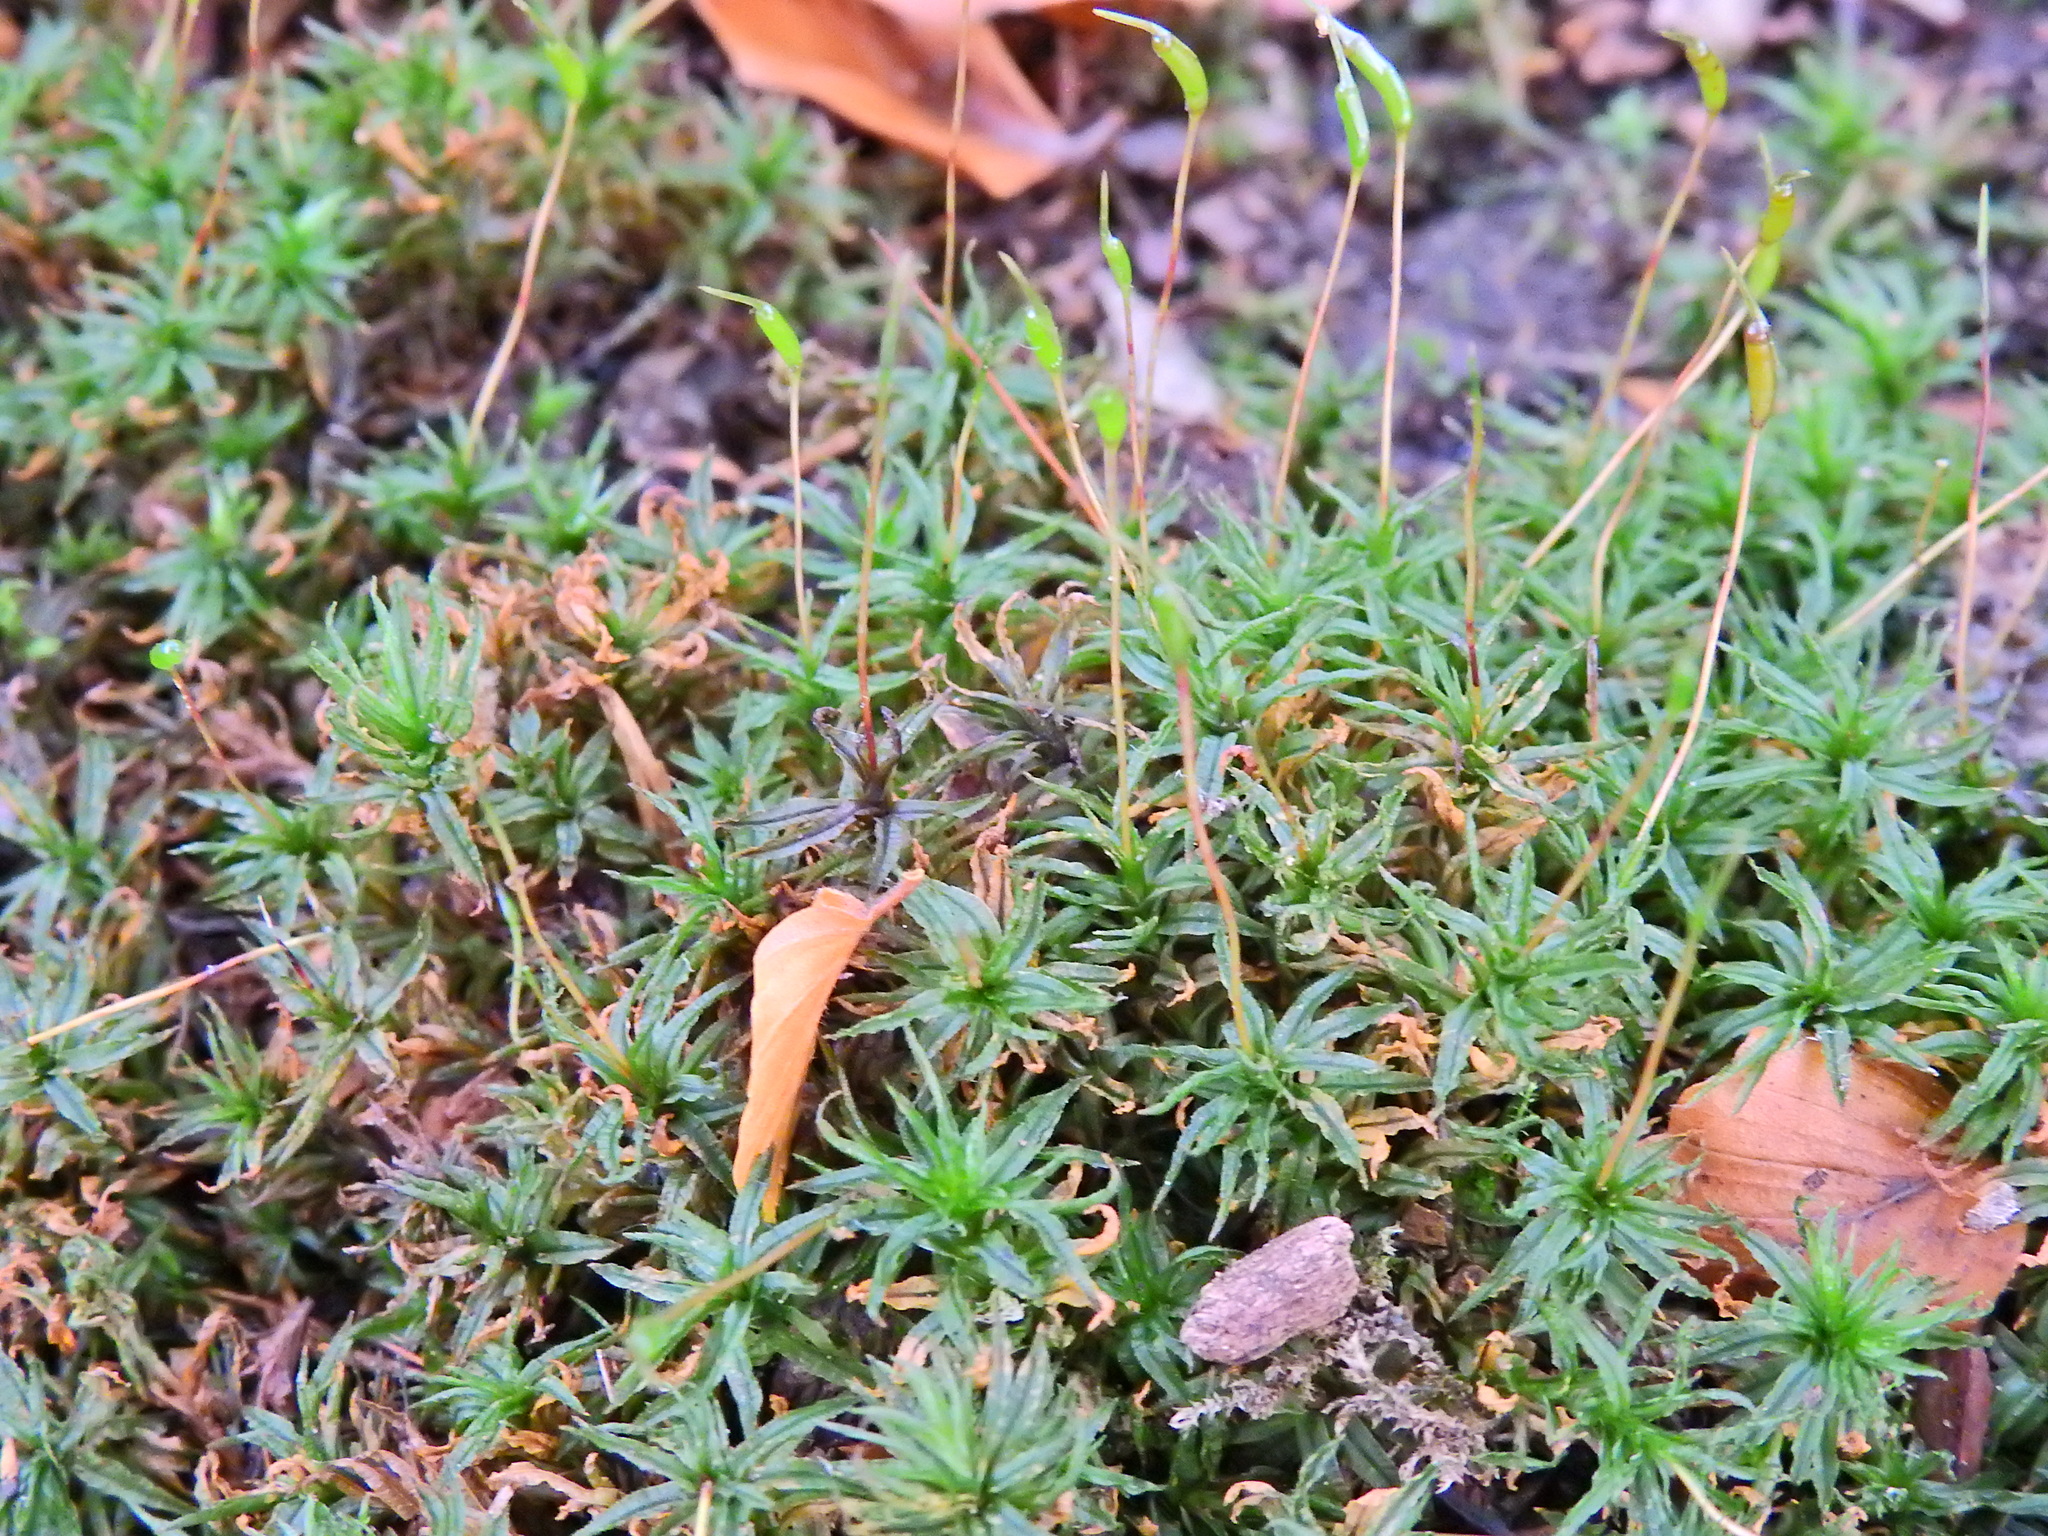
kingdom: Plantae
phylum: Bryophyta
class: Polytrichopsida
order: Polytrichales
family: Polytrichaceae
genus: Atrichum
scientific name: Atrichum undulatum
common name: Common smoothcap
